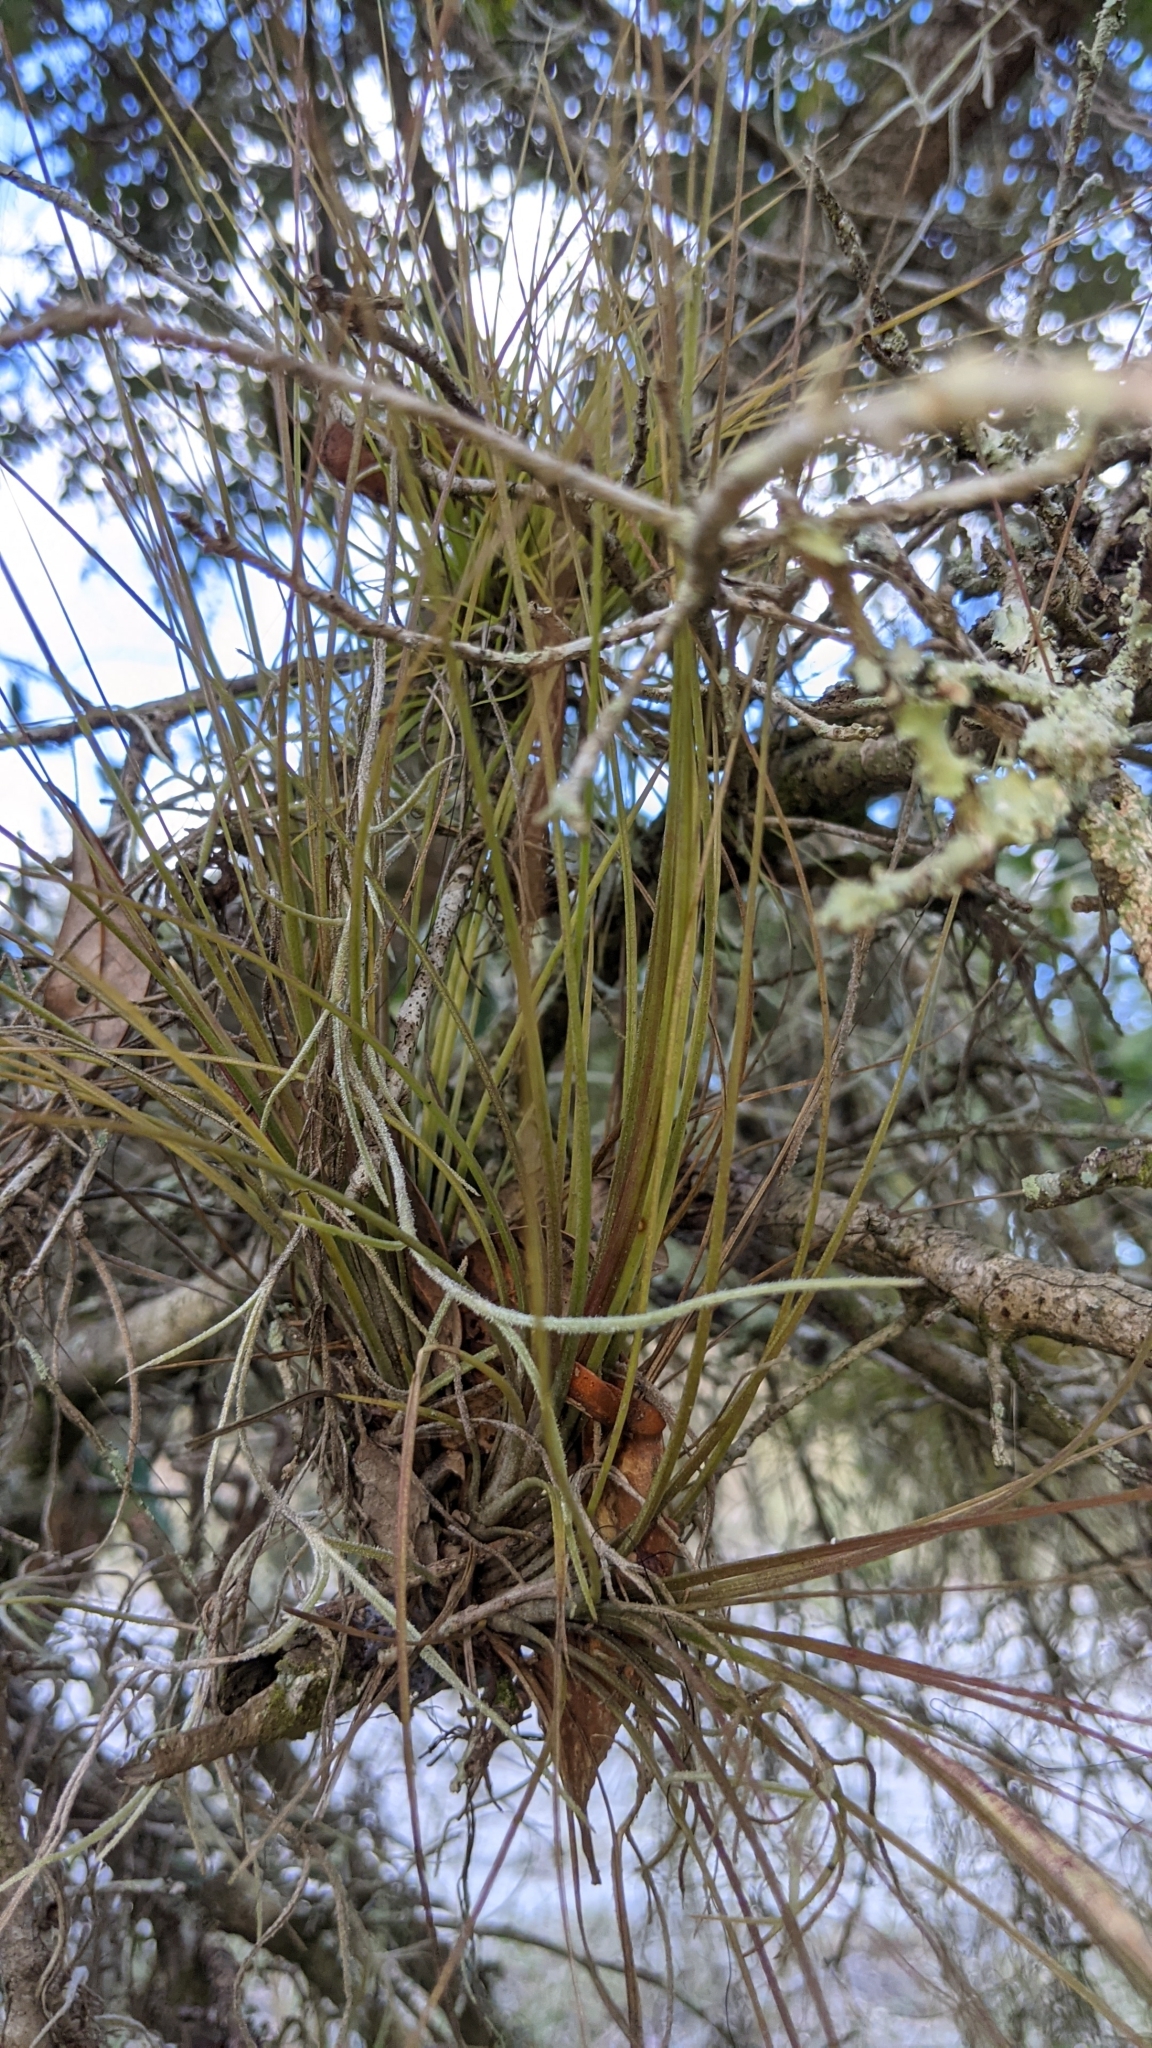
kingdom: Plantae
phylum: Tracheophyta
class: Liliopsida
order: Poales
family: Bromeliaceae
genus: Tillandsia
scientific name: Tillandsia setacea
